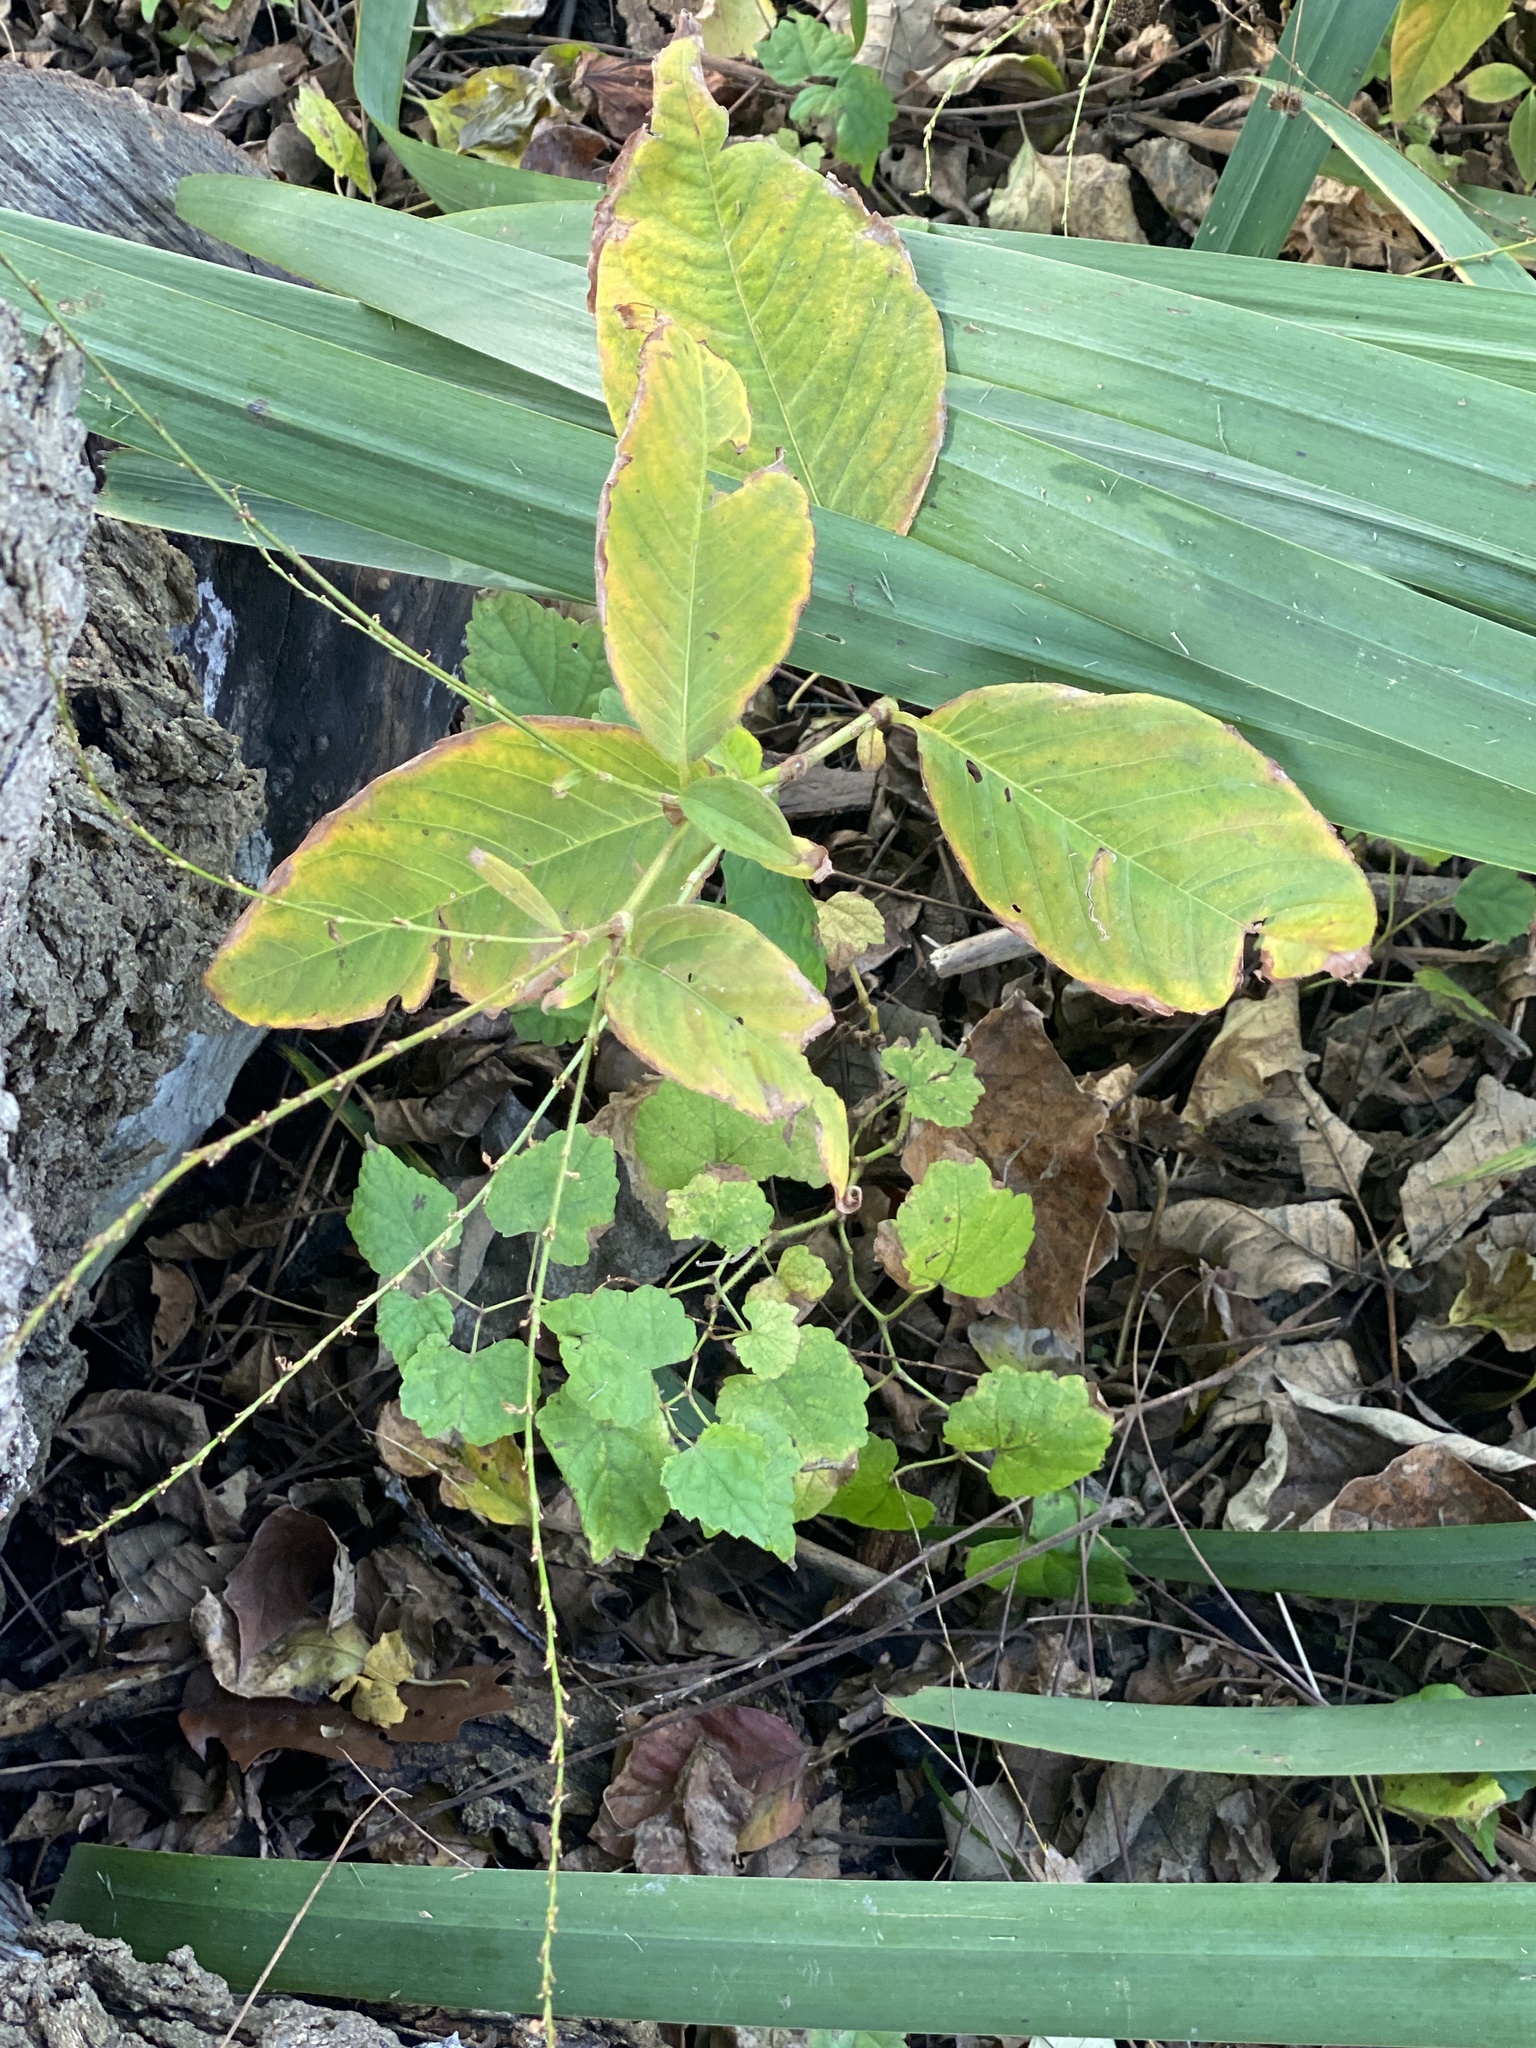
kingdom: Plantae
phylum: Tracheophyta
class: Magnoliopsida
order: Caryophyllales
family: Polygonaceae
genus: Persicaria
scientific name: Persicaria virginiana
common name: Jumpseed
